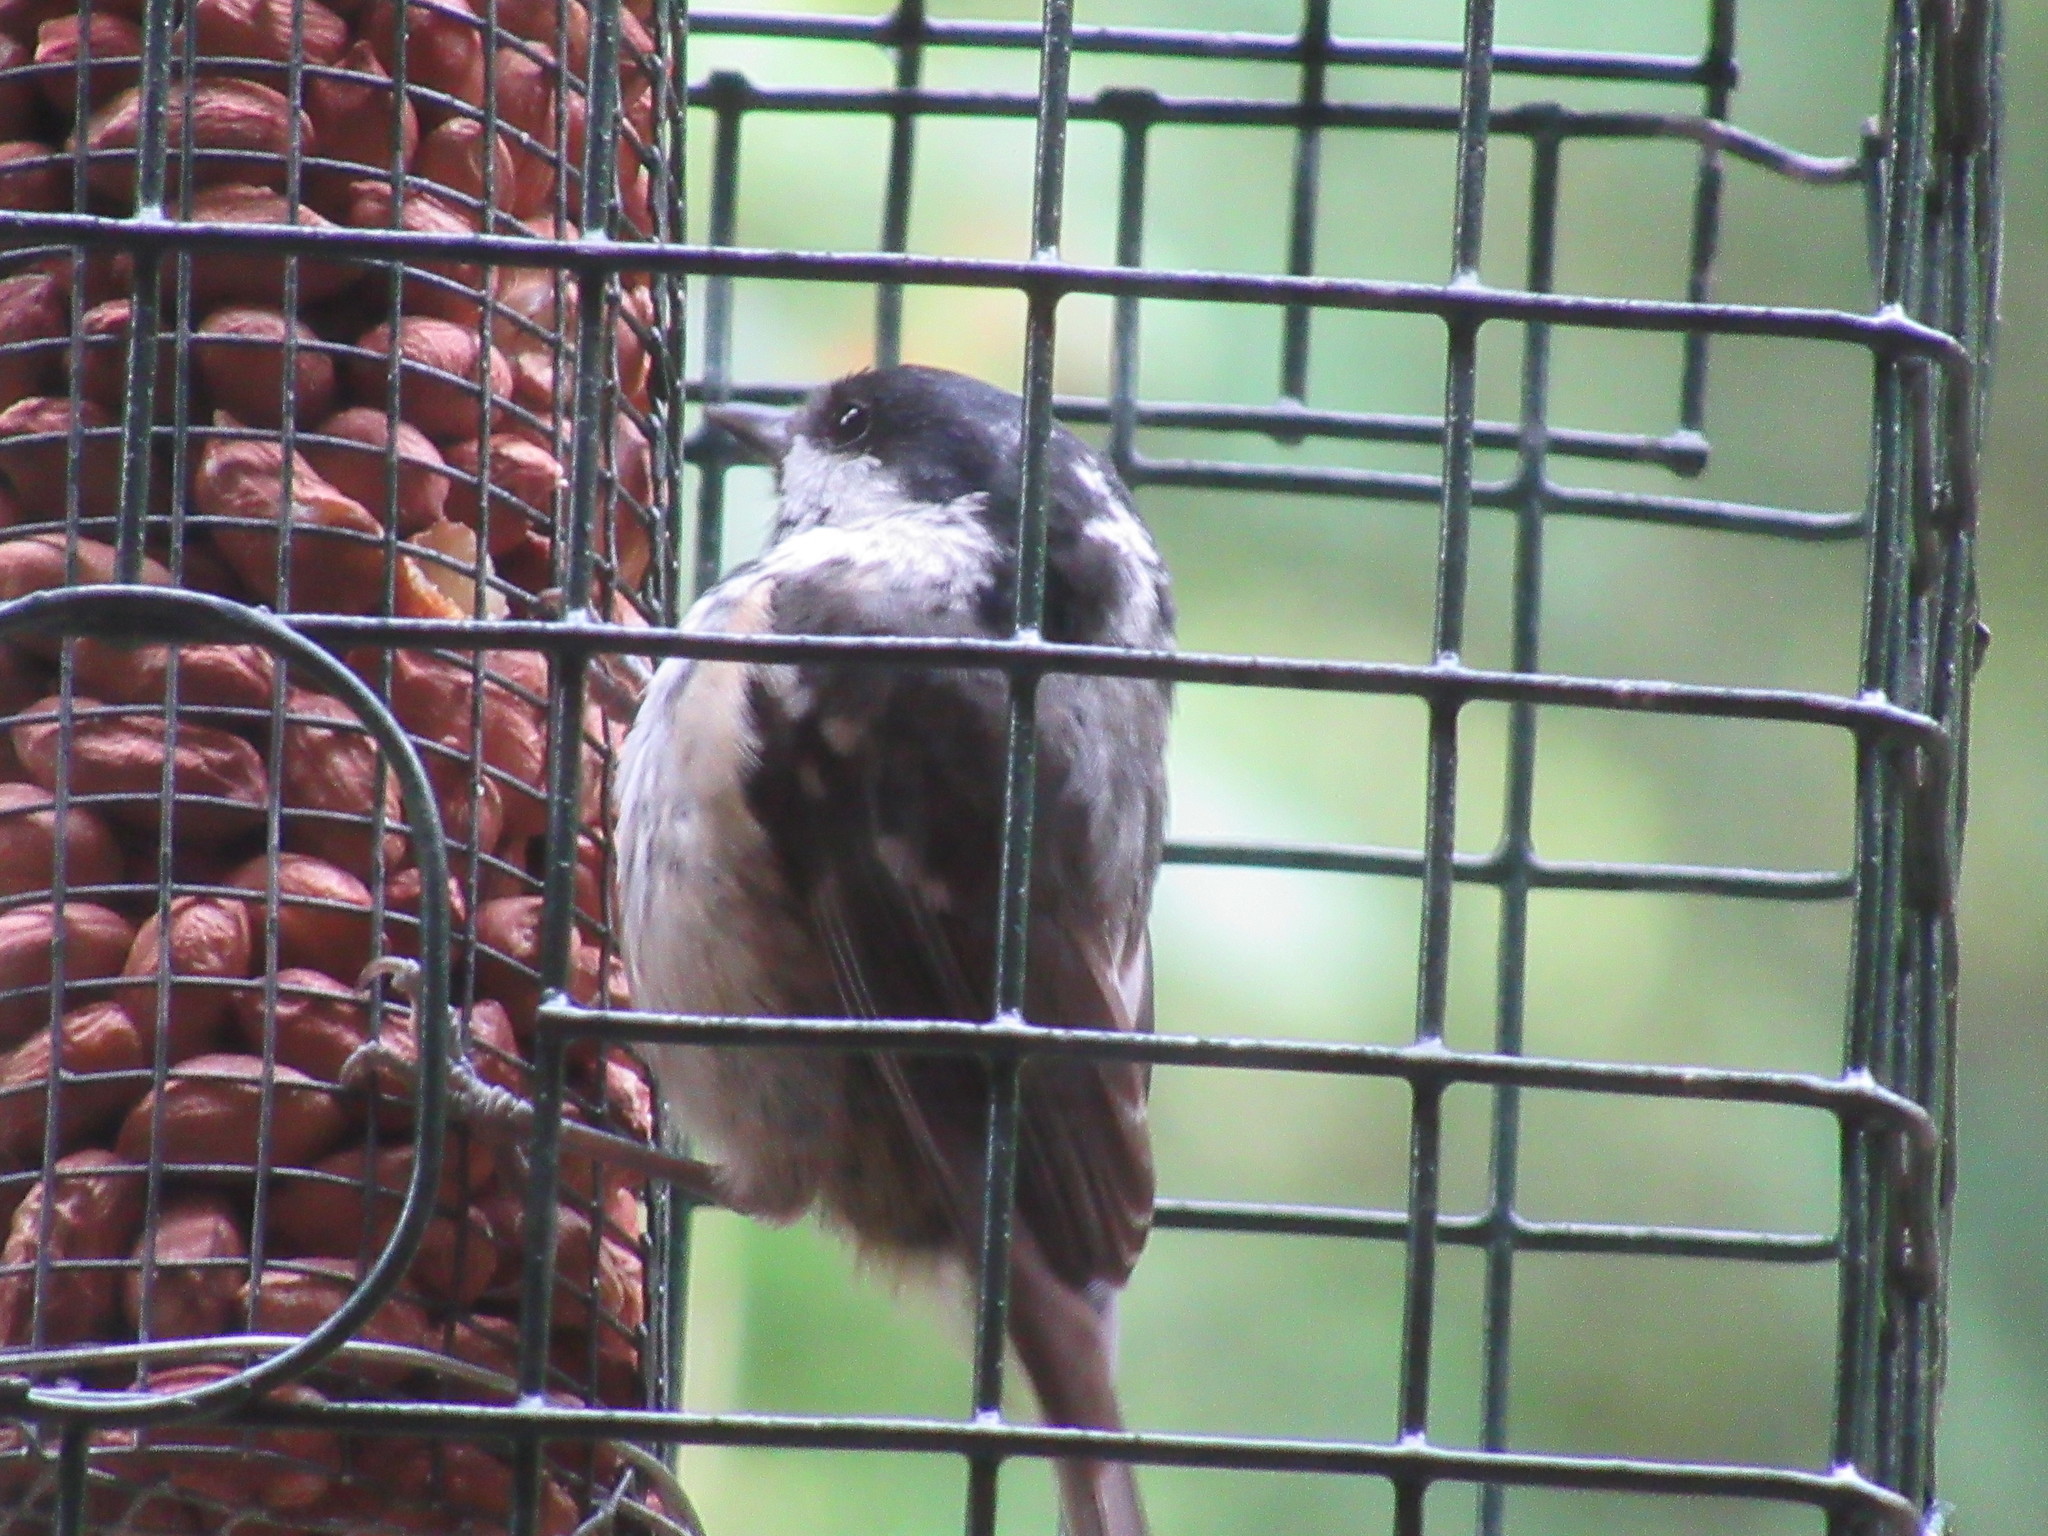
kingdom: Animalia
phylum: Chordata
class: Aves
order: Passeriformes
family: Paridae
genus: Periparus
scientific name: Periparus ater
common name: Coal tit
